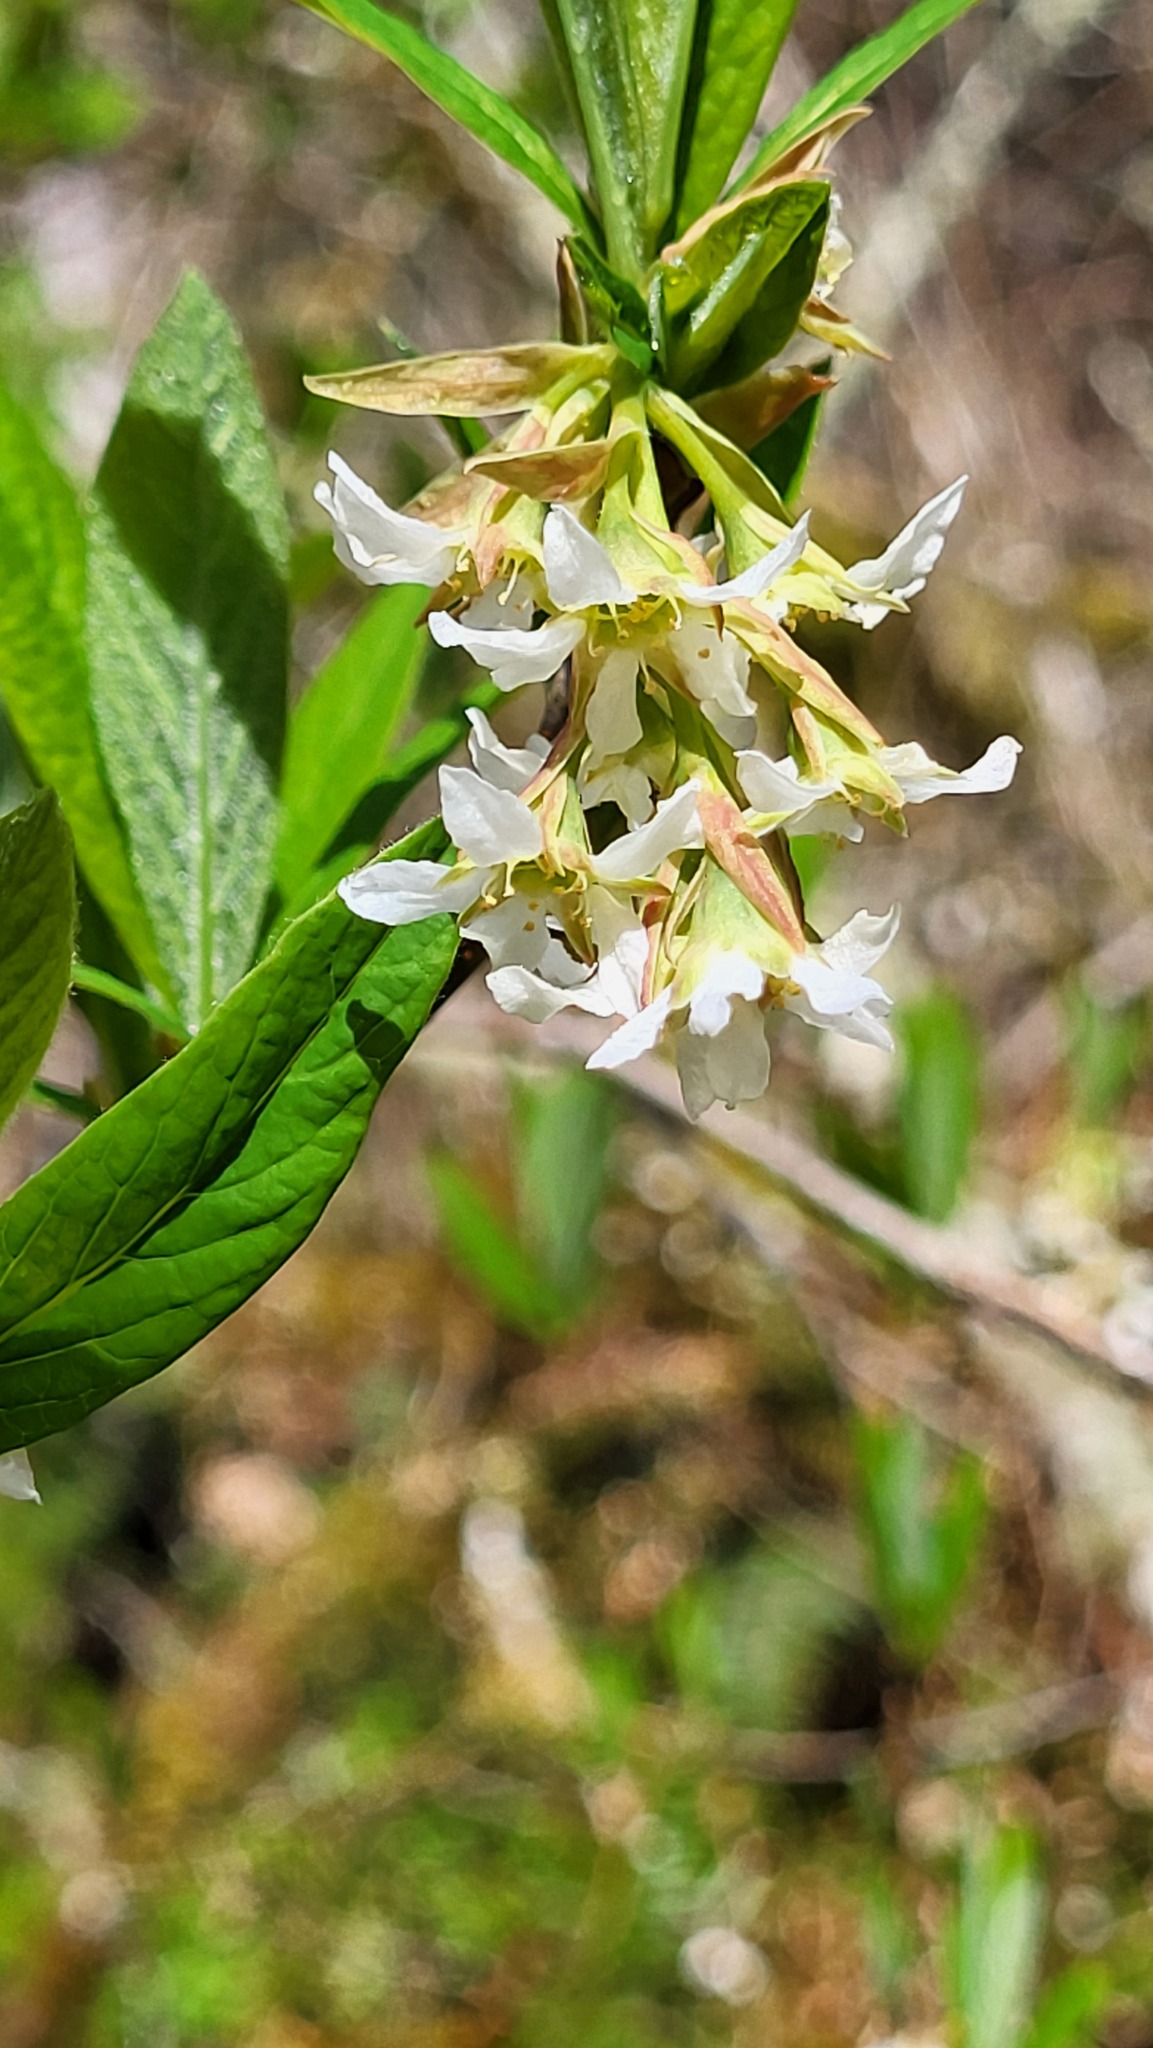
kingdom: Plantae
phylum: Tracheophyta
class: Magnoliopsida
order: Rosales
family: Rosaceae
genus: Oemleria
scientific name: Oemleria cerasiformis
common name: Osoberry
